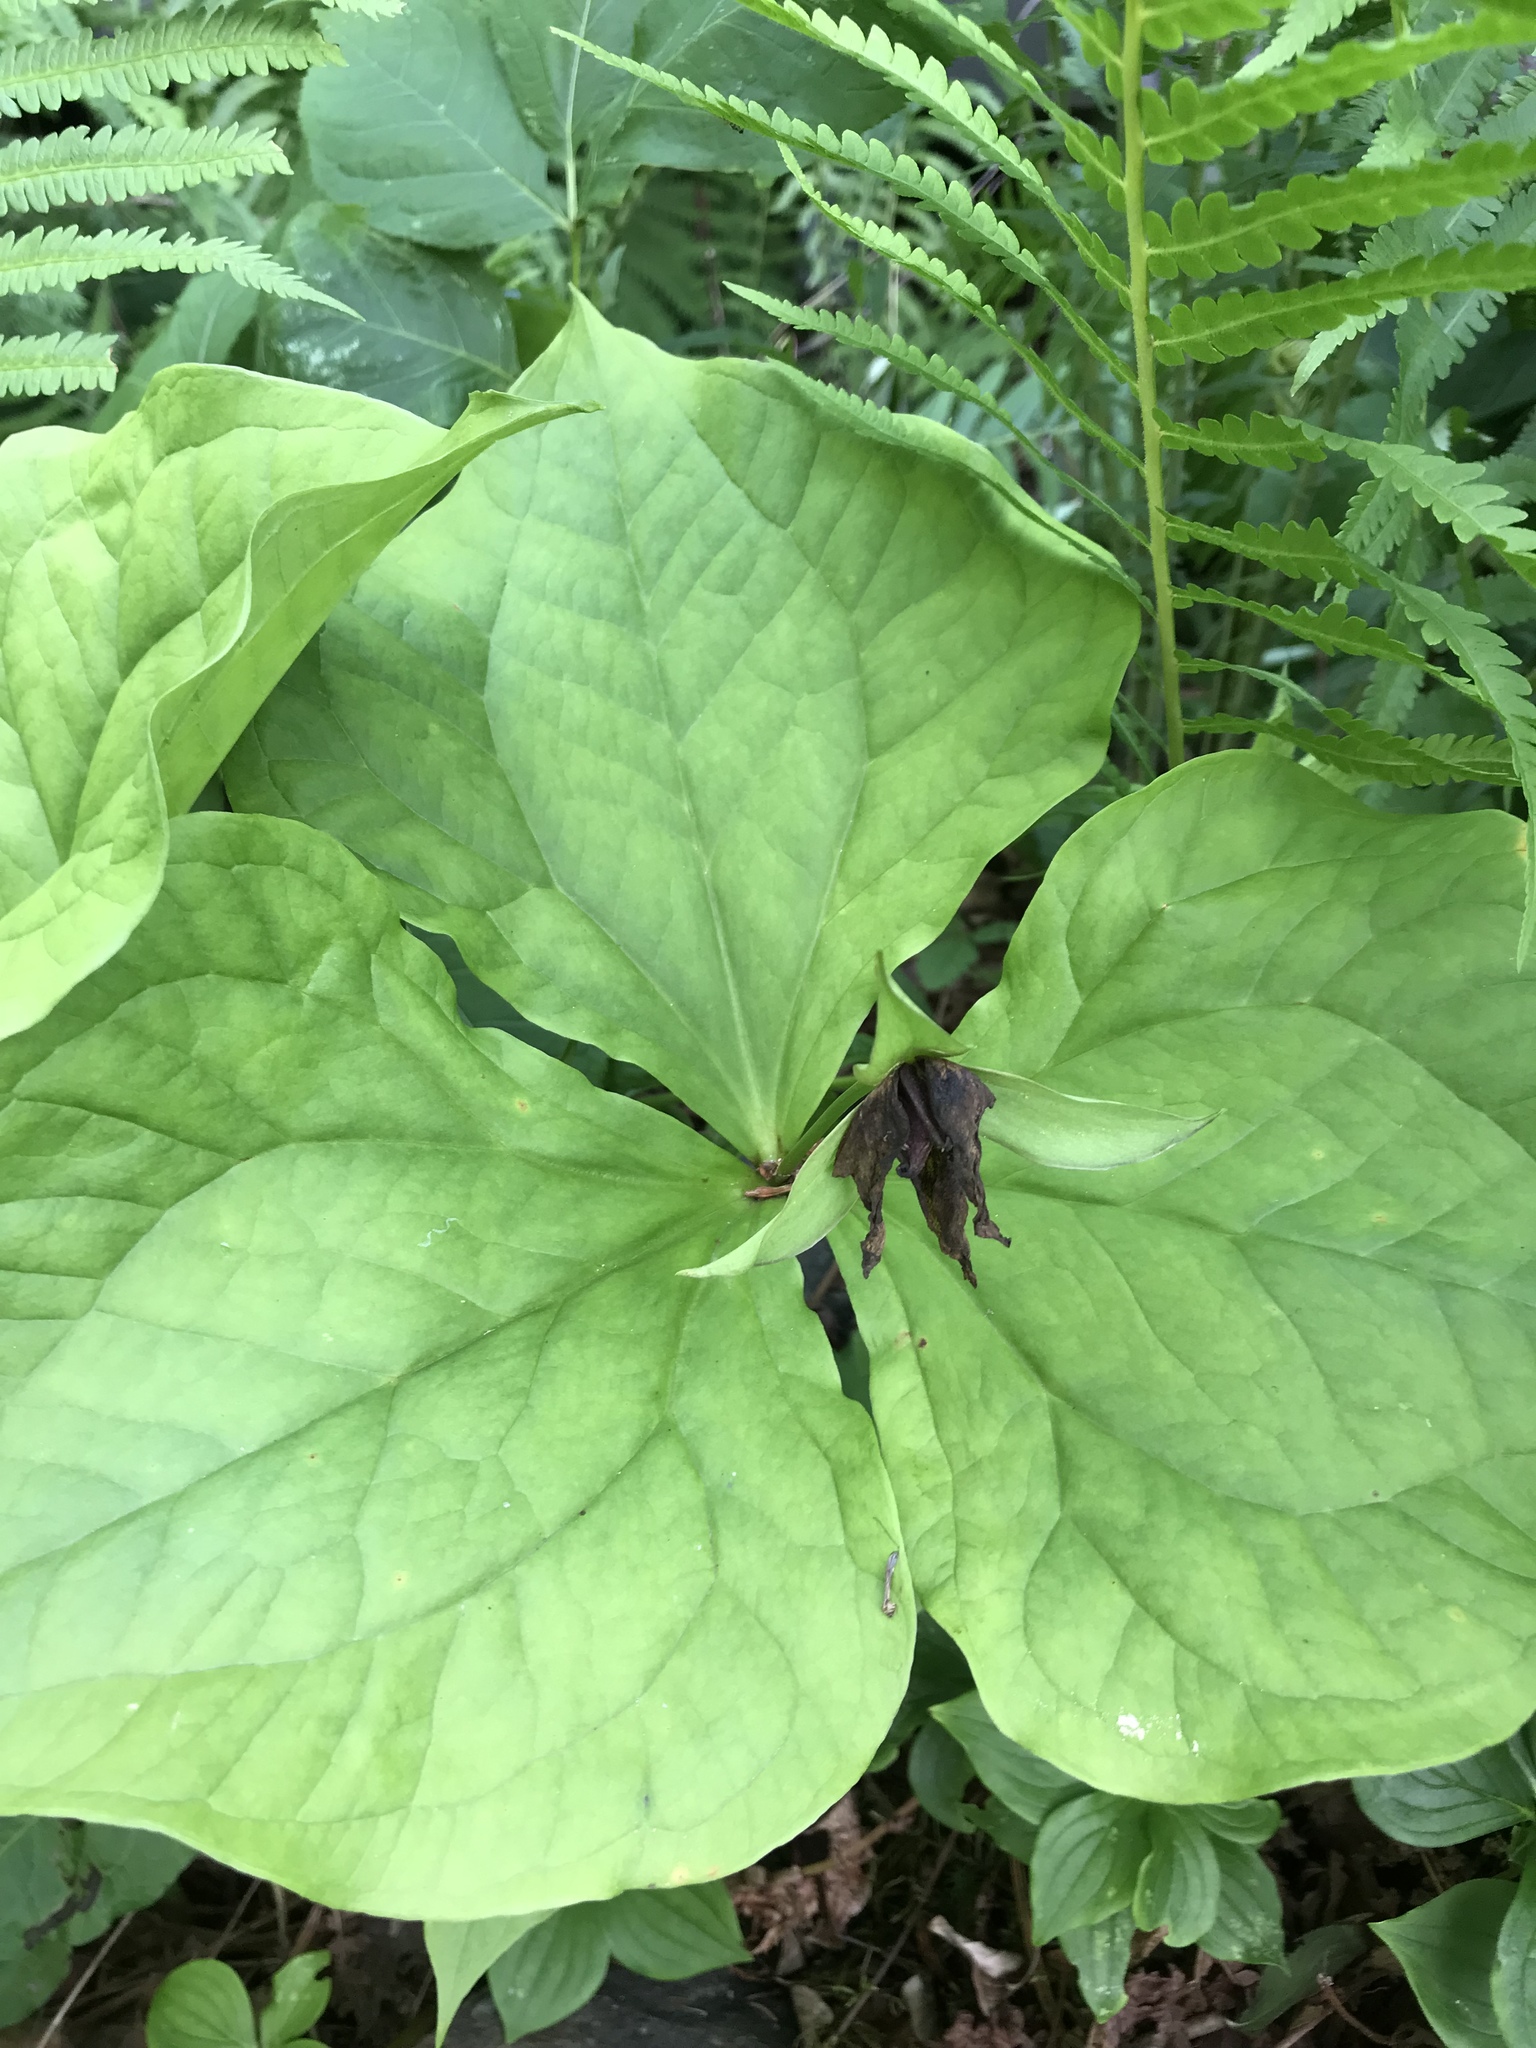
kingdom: Plantae
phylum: Tracheophyta
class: Liliopsida
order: Liliales
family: Melanthiaceae
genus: Trillium
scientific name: Trillium erectum
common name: Purple trillium
